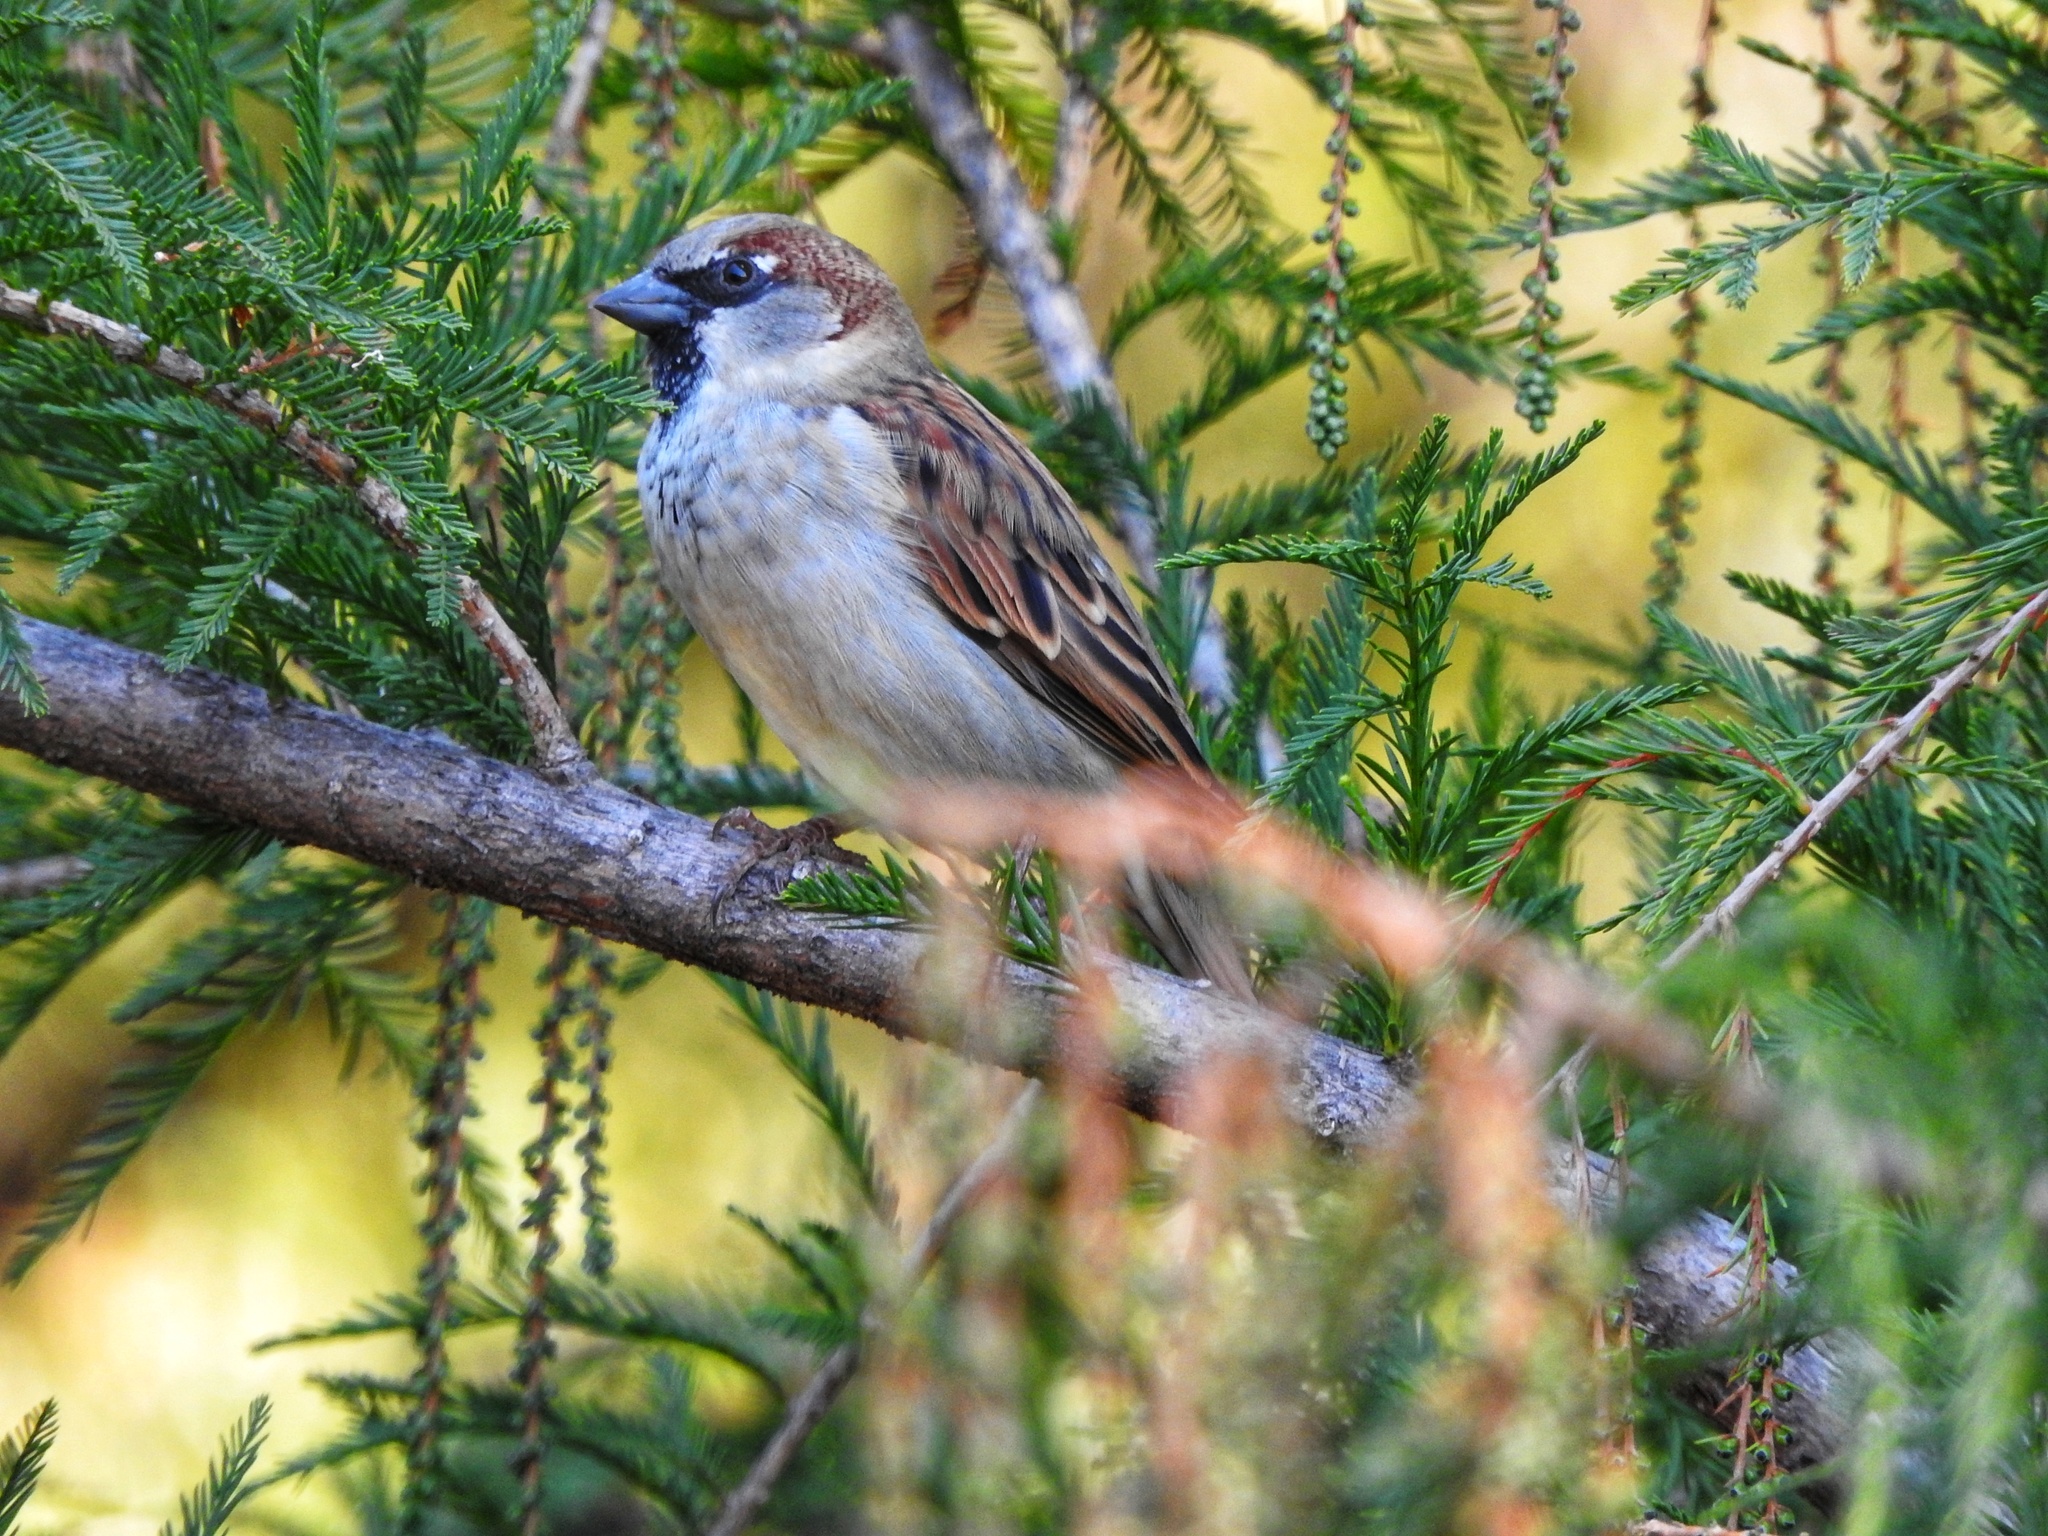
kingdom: Animalia
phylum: Chordata
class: Aves
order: Passeriformes
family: Passeridae
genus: Passer
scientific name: Passer domesticus
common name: House sparrow
